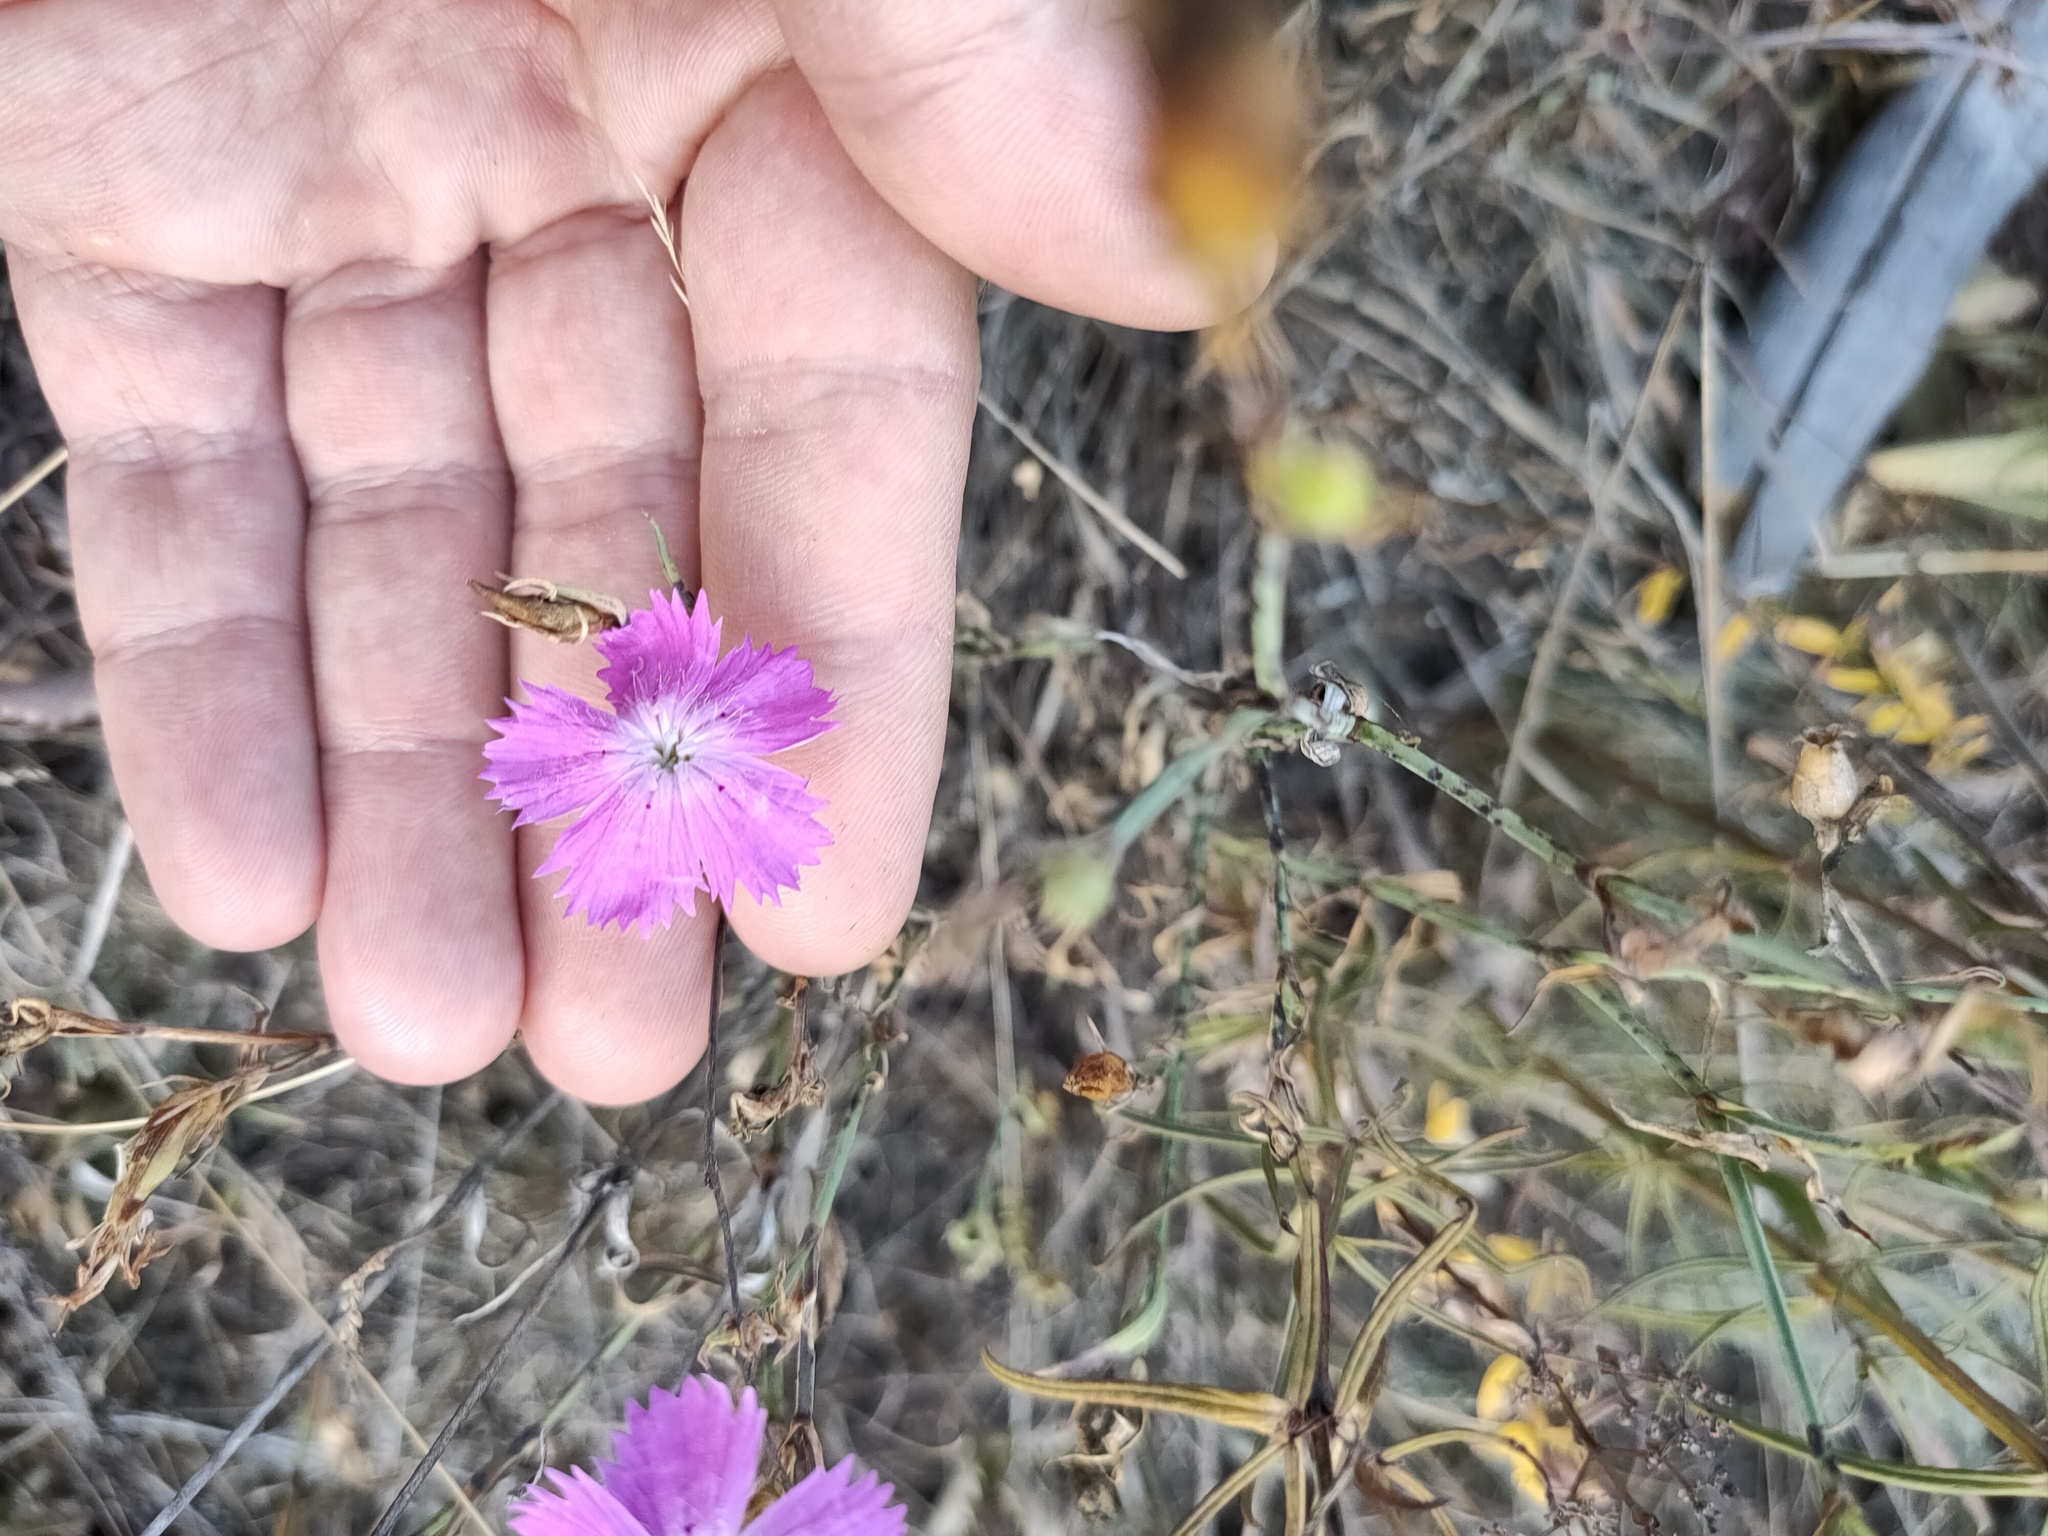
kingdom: Plantae
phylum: Tracheophyta
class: Magnoliopsida
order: Caryophyllales
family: Caryophyllaceae
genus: Dianthus
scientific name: Dianthus chinensis
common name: Rainbow pink
